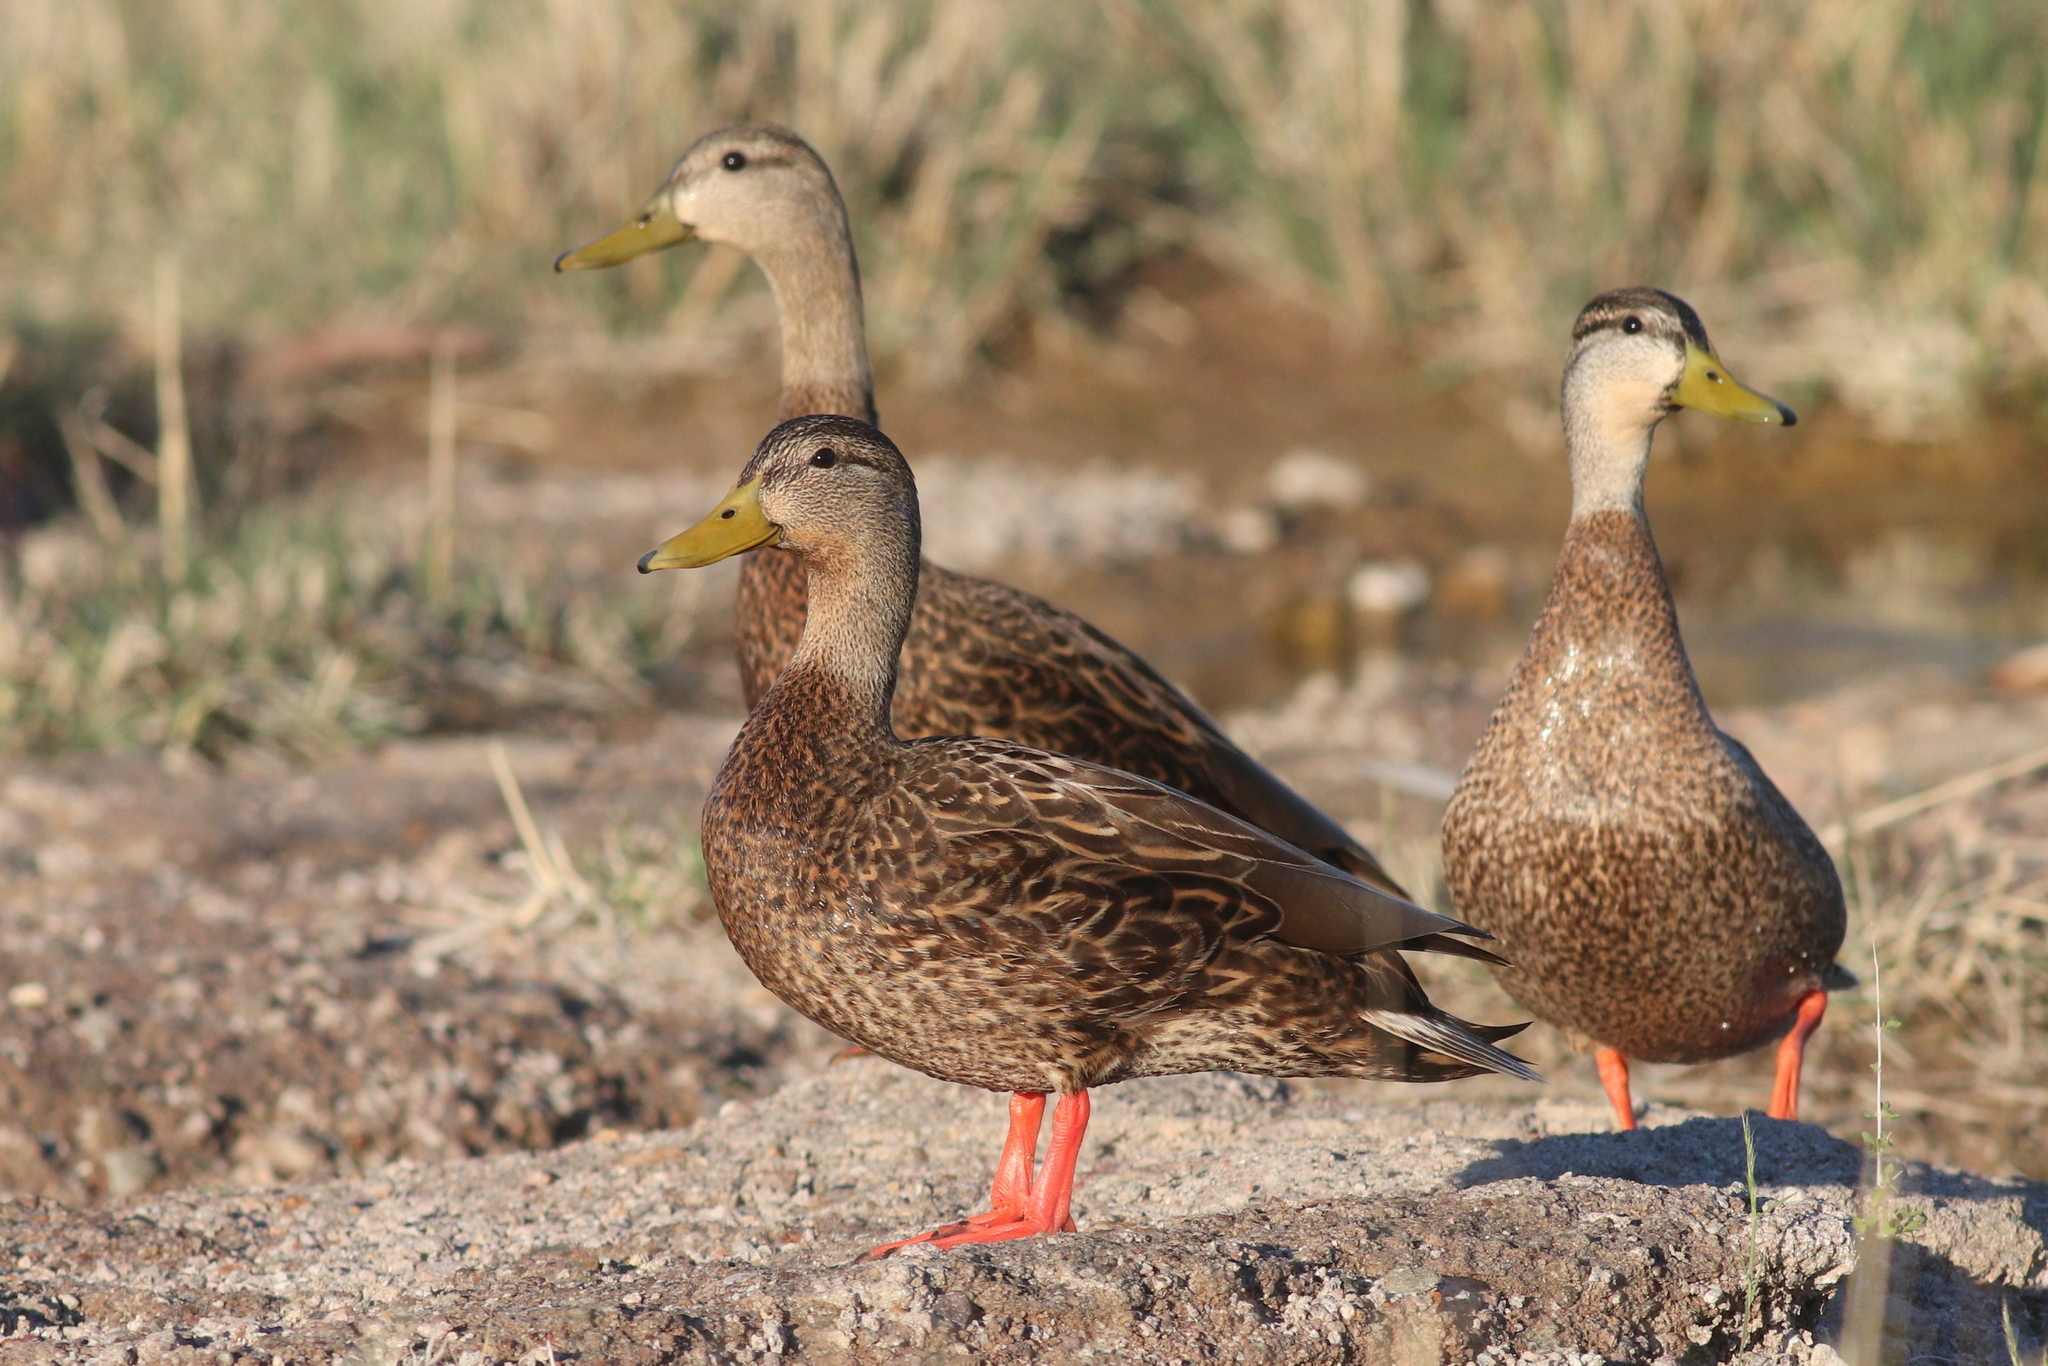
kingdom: Animalia
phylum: Chordata
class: Aves
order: Anseriformes
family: Anatidae
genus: Anas
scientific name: Anas diazi
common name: Mexican duck
